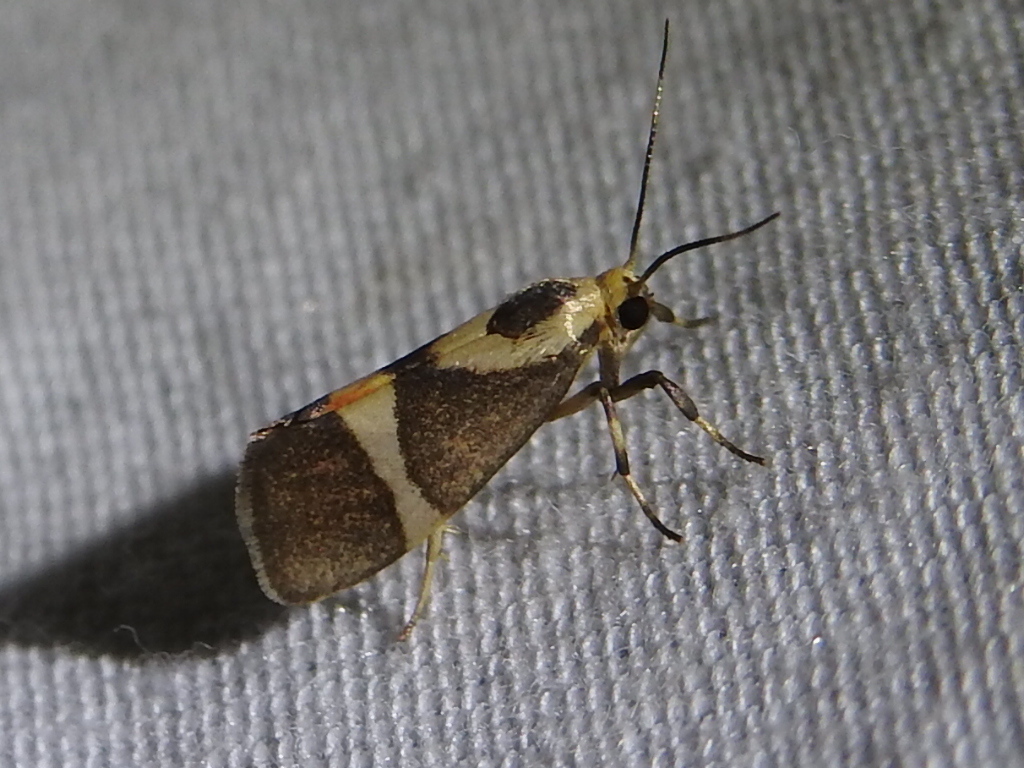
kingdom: Animalia
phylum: Arthropoda
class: Insecta
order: Lepidoptera
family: Erebidae
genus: Cisthene
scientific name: Cisthene subrufa
